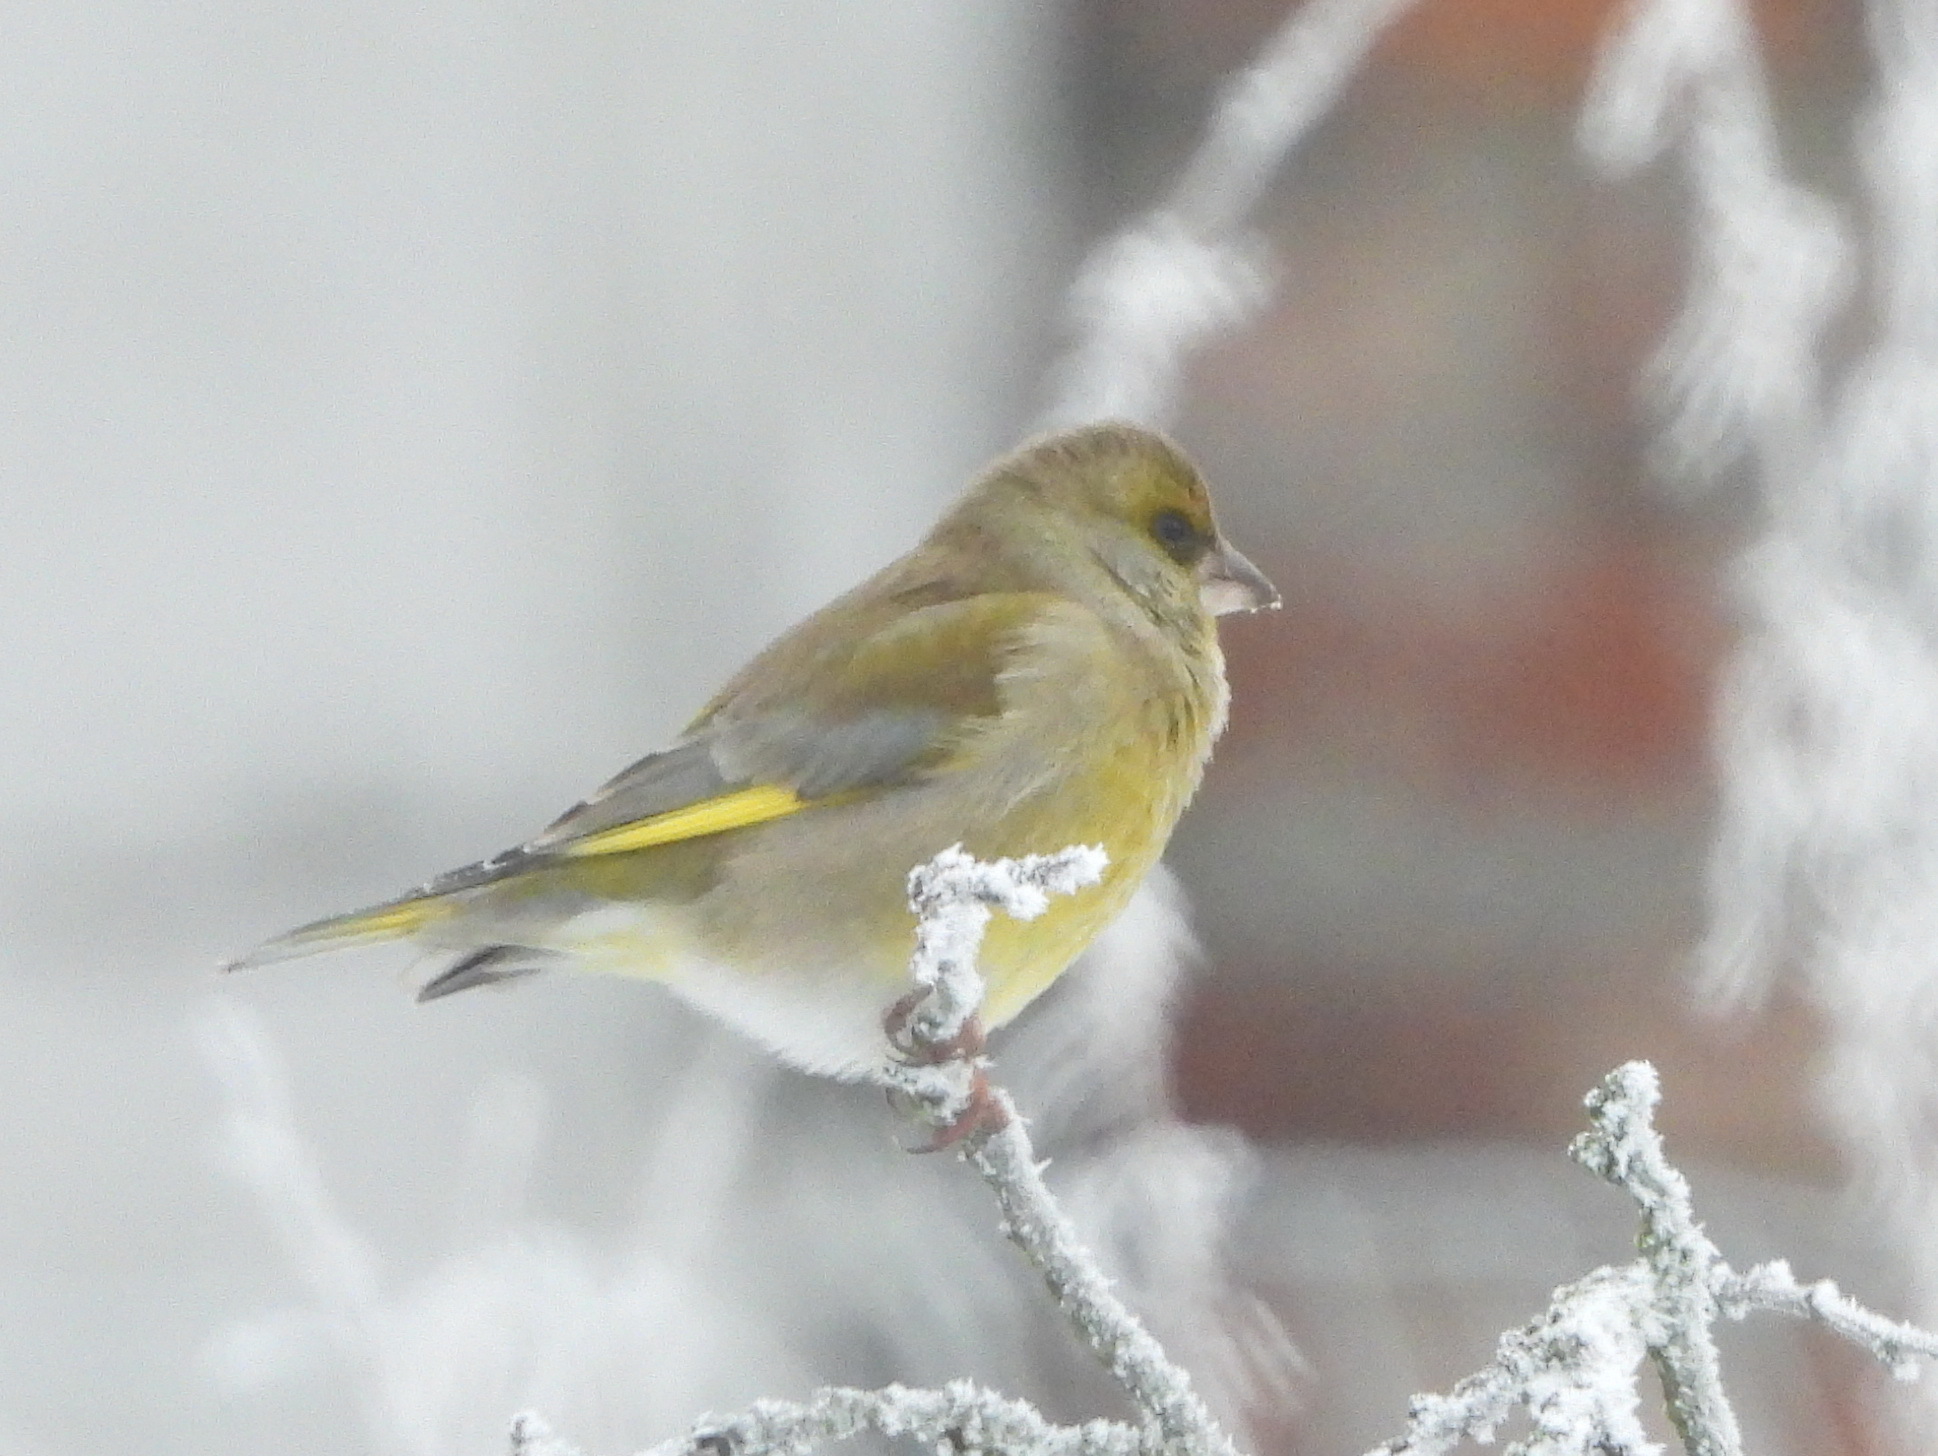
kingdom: Plantae
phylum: Tracheophyta
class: Liliopsida
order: Poales
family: Poaceae
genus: Chloris
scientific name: Chloris chloris
